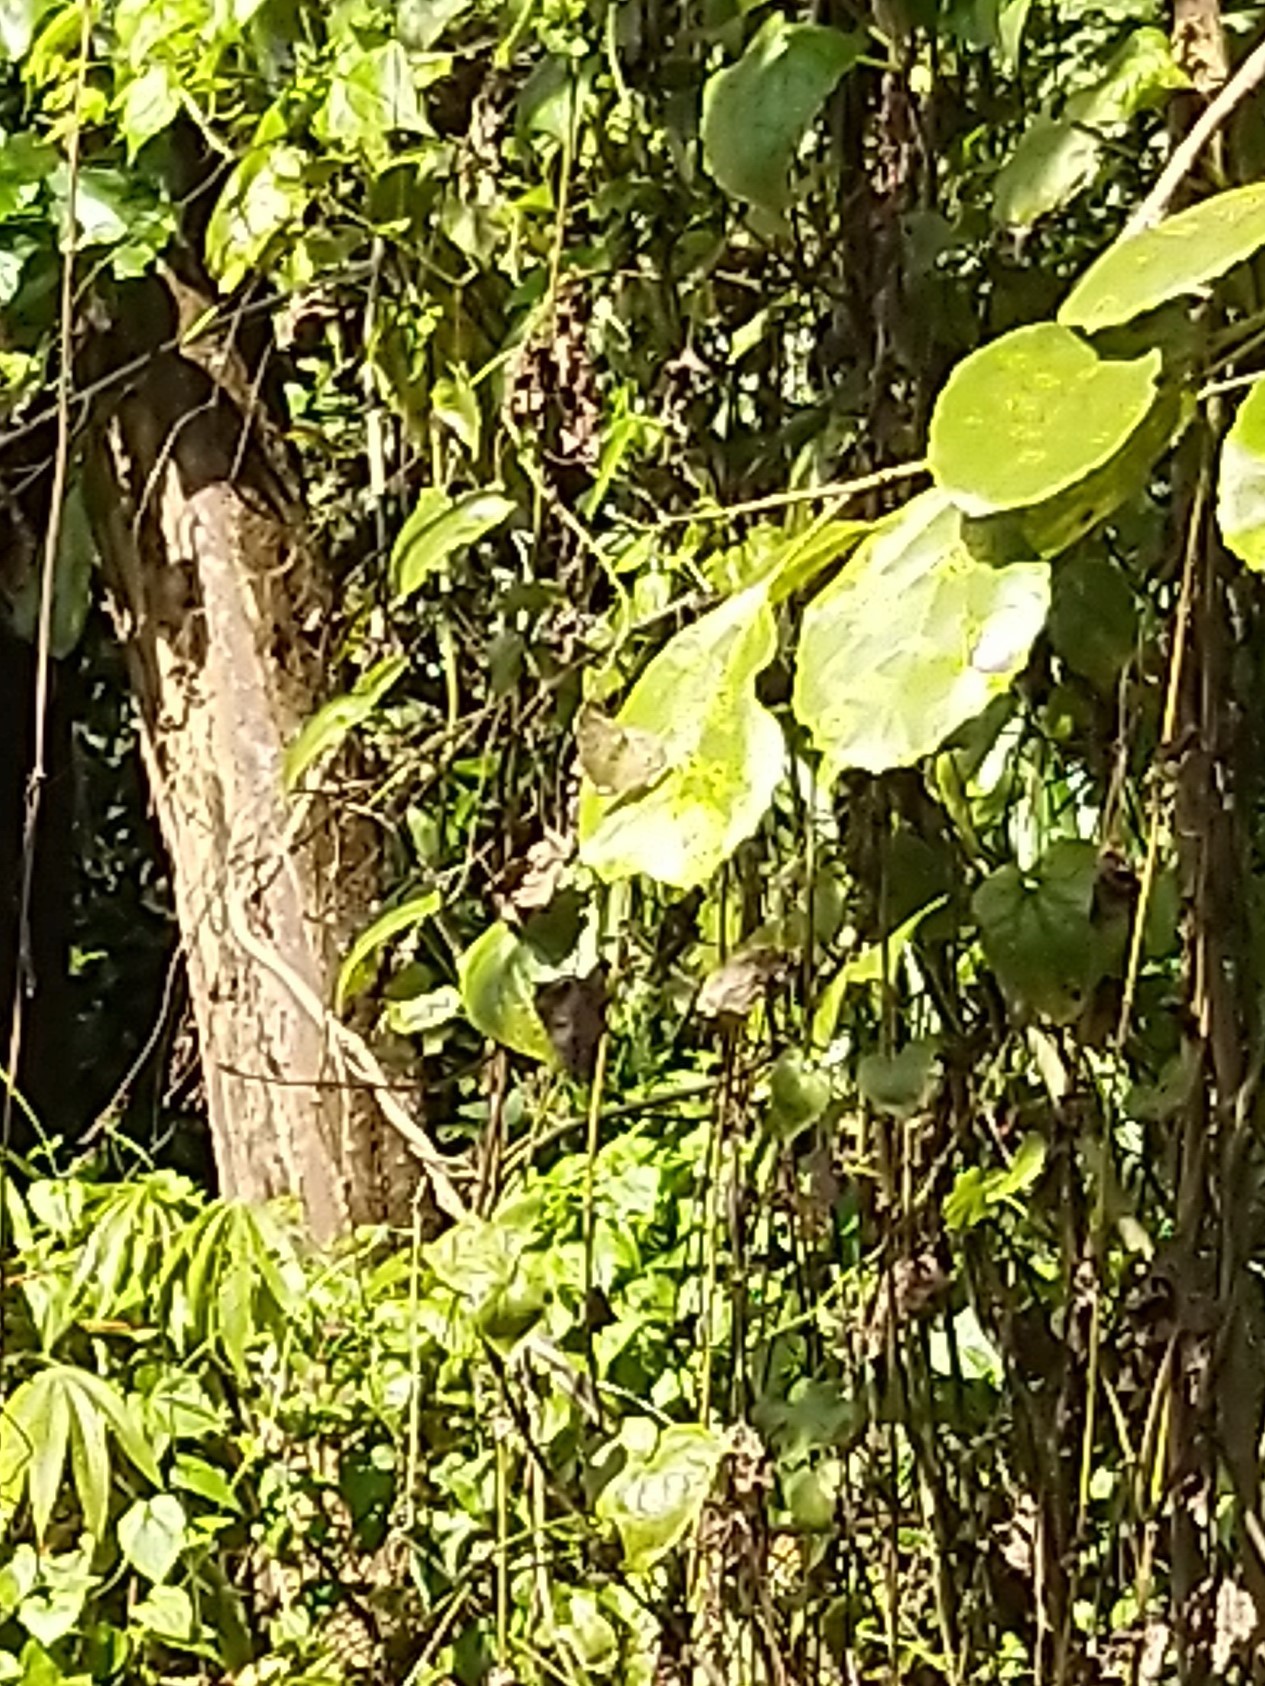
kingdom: Animalia
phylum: Arthropoda
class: Insecta
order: Lepidoptera
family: Nymphalidae
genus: Junonia
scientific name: Junonia atlites
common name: Grey pansy
